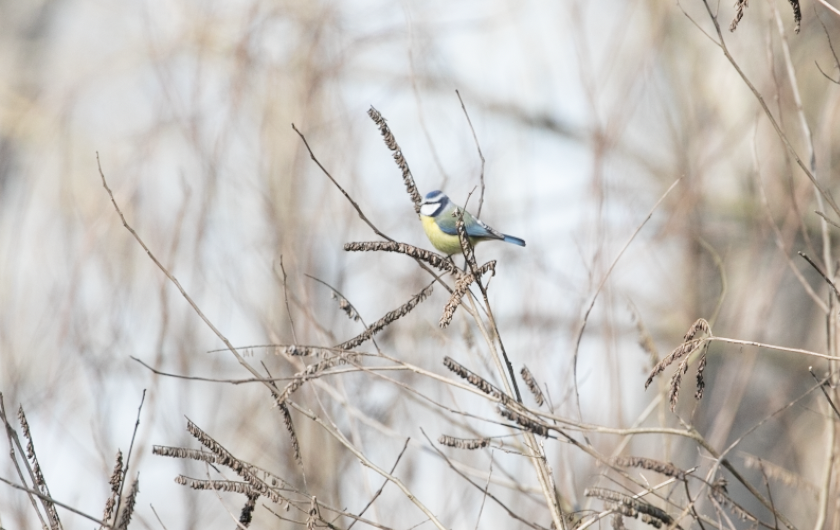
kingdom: Animalia
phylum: Chordata
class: Aves
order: Passeriformes
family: Paridae
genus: Cyanistes
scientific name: Cyanistes caeruleus
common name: Eurasian blue tit
